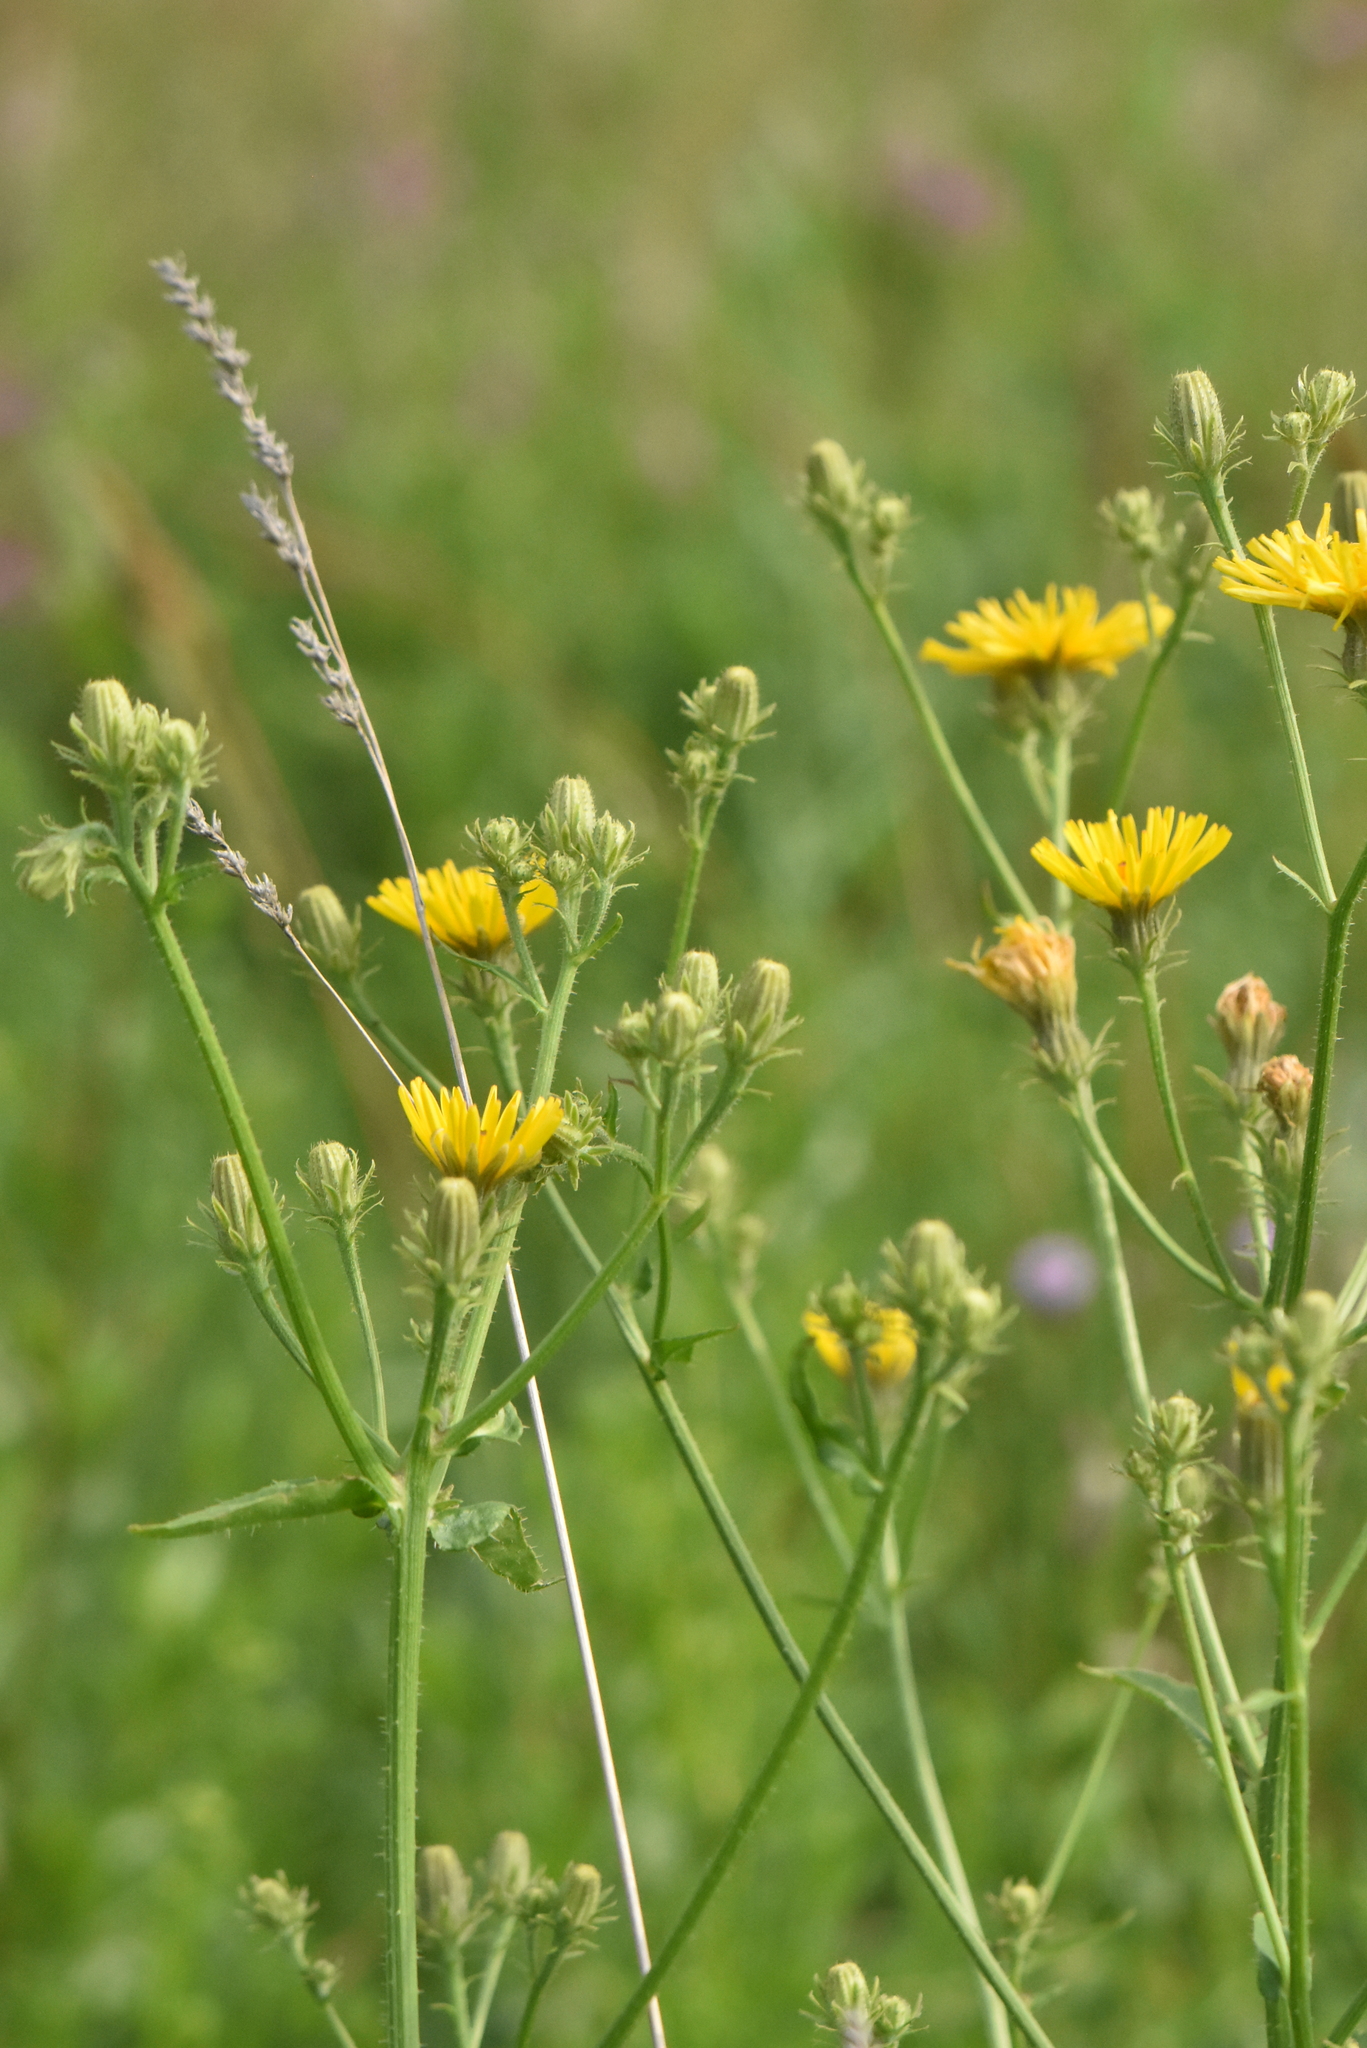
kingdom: Plantae
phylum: Tracheophyta
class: Magnoliopsida
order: Asterales
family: Asteraceae
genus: Picris
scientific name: Picris hieracioides
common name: Hawkweed oxtongue
